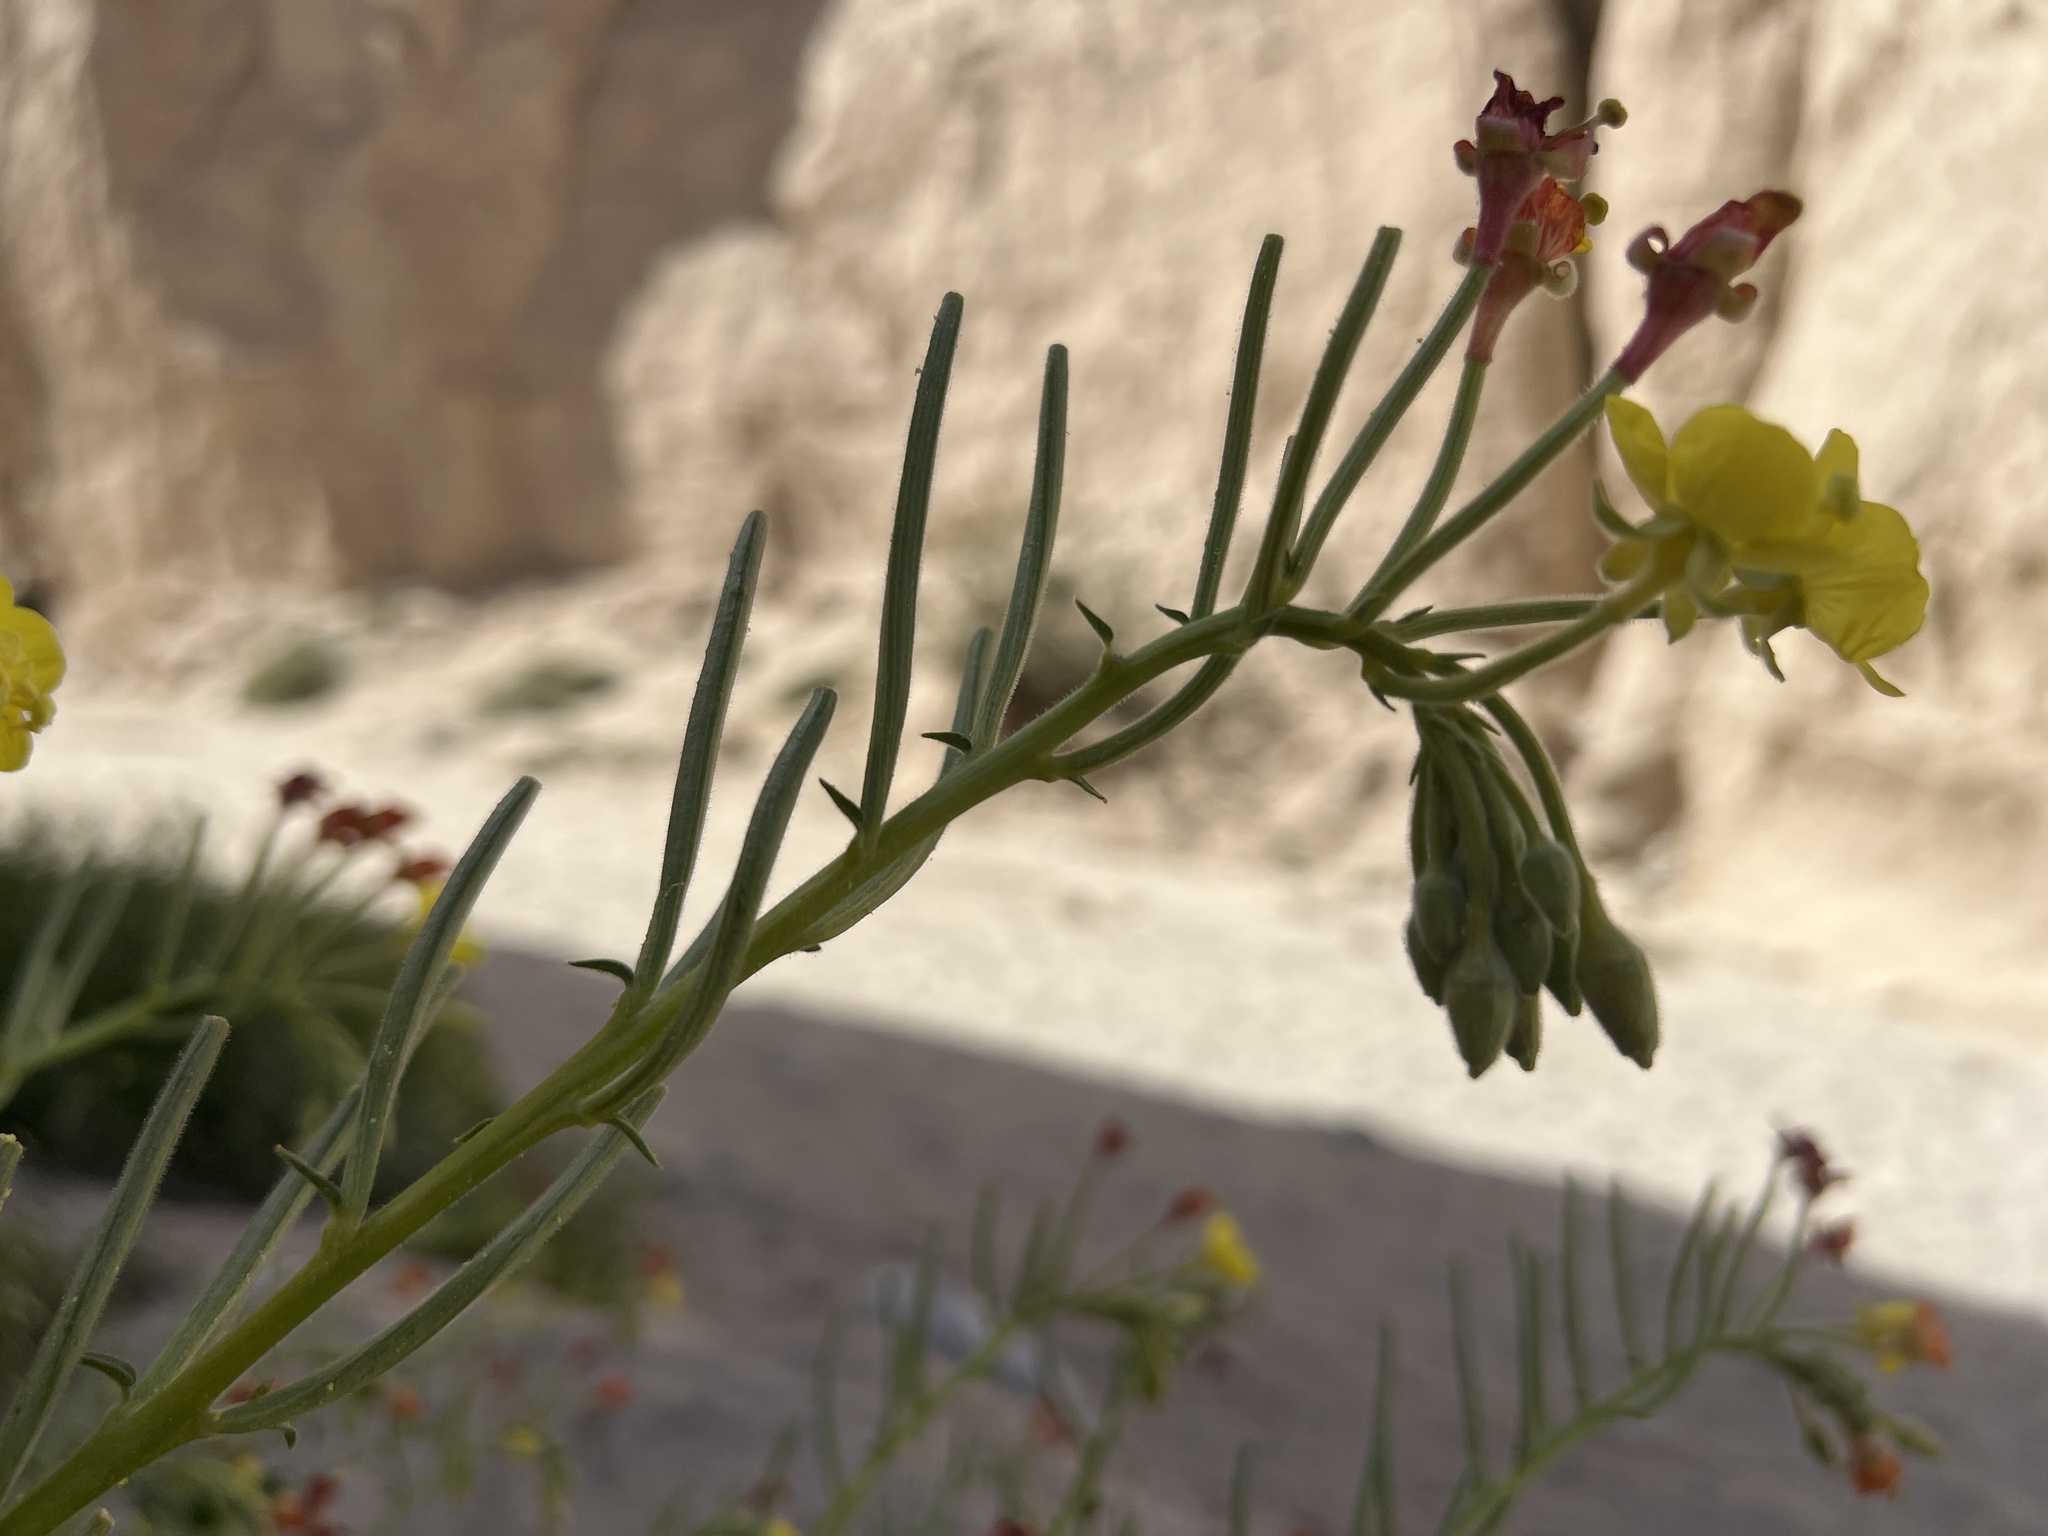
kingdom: Plantae
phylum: Tracheophyta
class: Magnoliopsida
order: Myrtales
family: Onagraceae
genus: Chylismia
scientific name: Chylismia cardiophylla
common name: Heartleaf suncup
